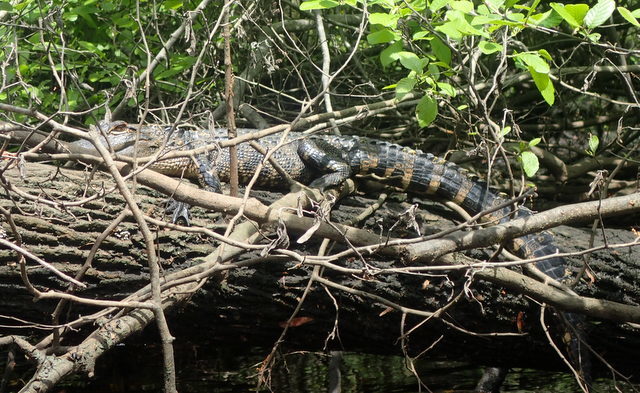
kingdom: Animalia
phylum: Chordata
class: Crocodylia
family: Alligatoridae
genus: Alligator
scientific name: Alligator mississippiensis
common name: American alligator
